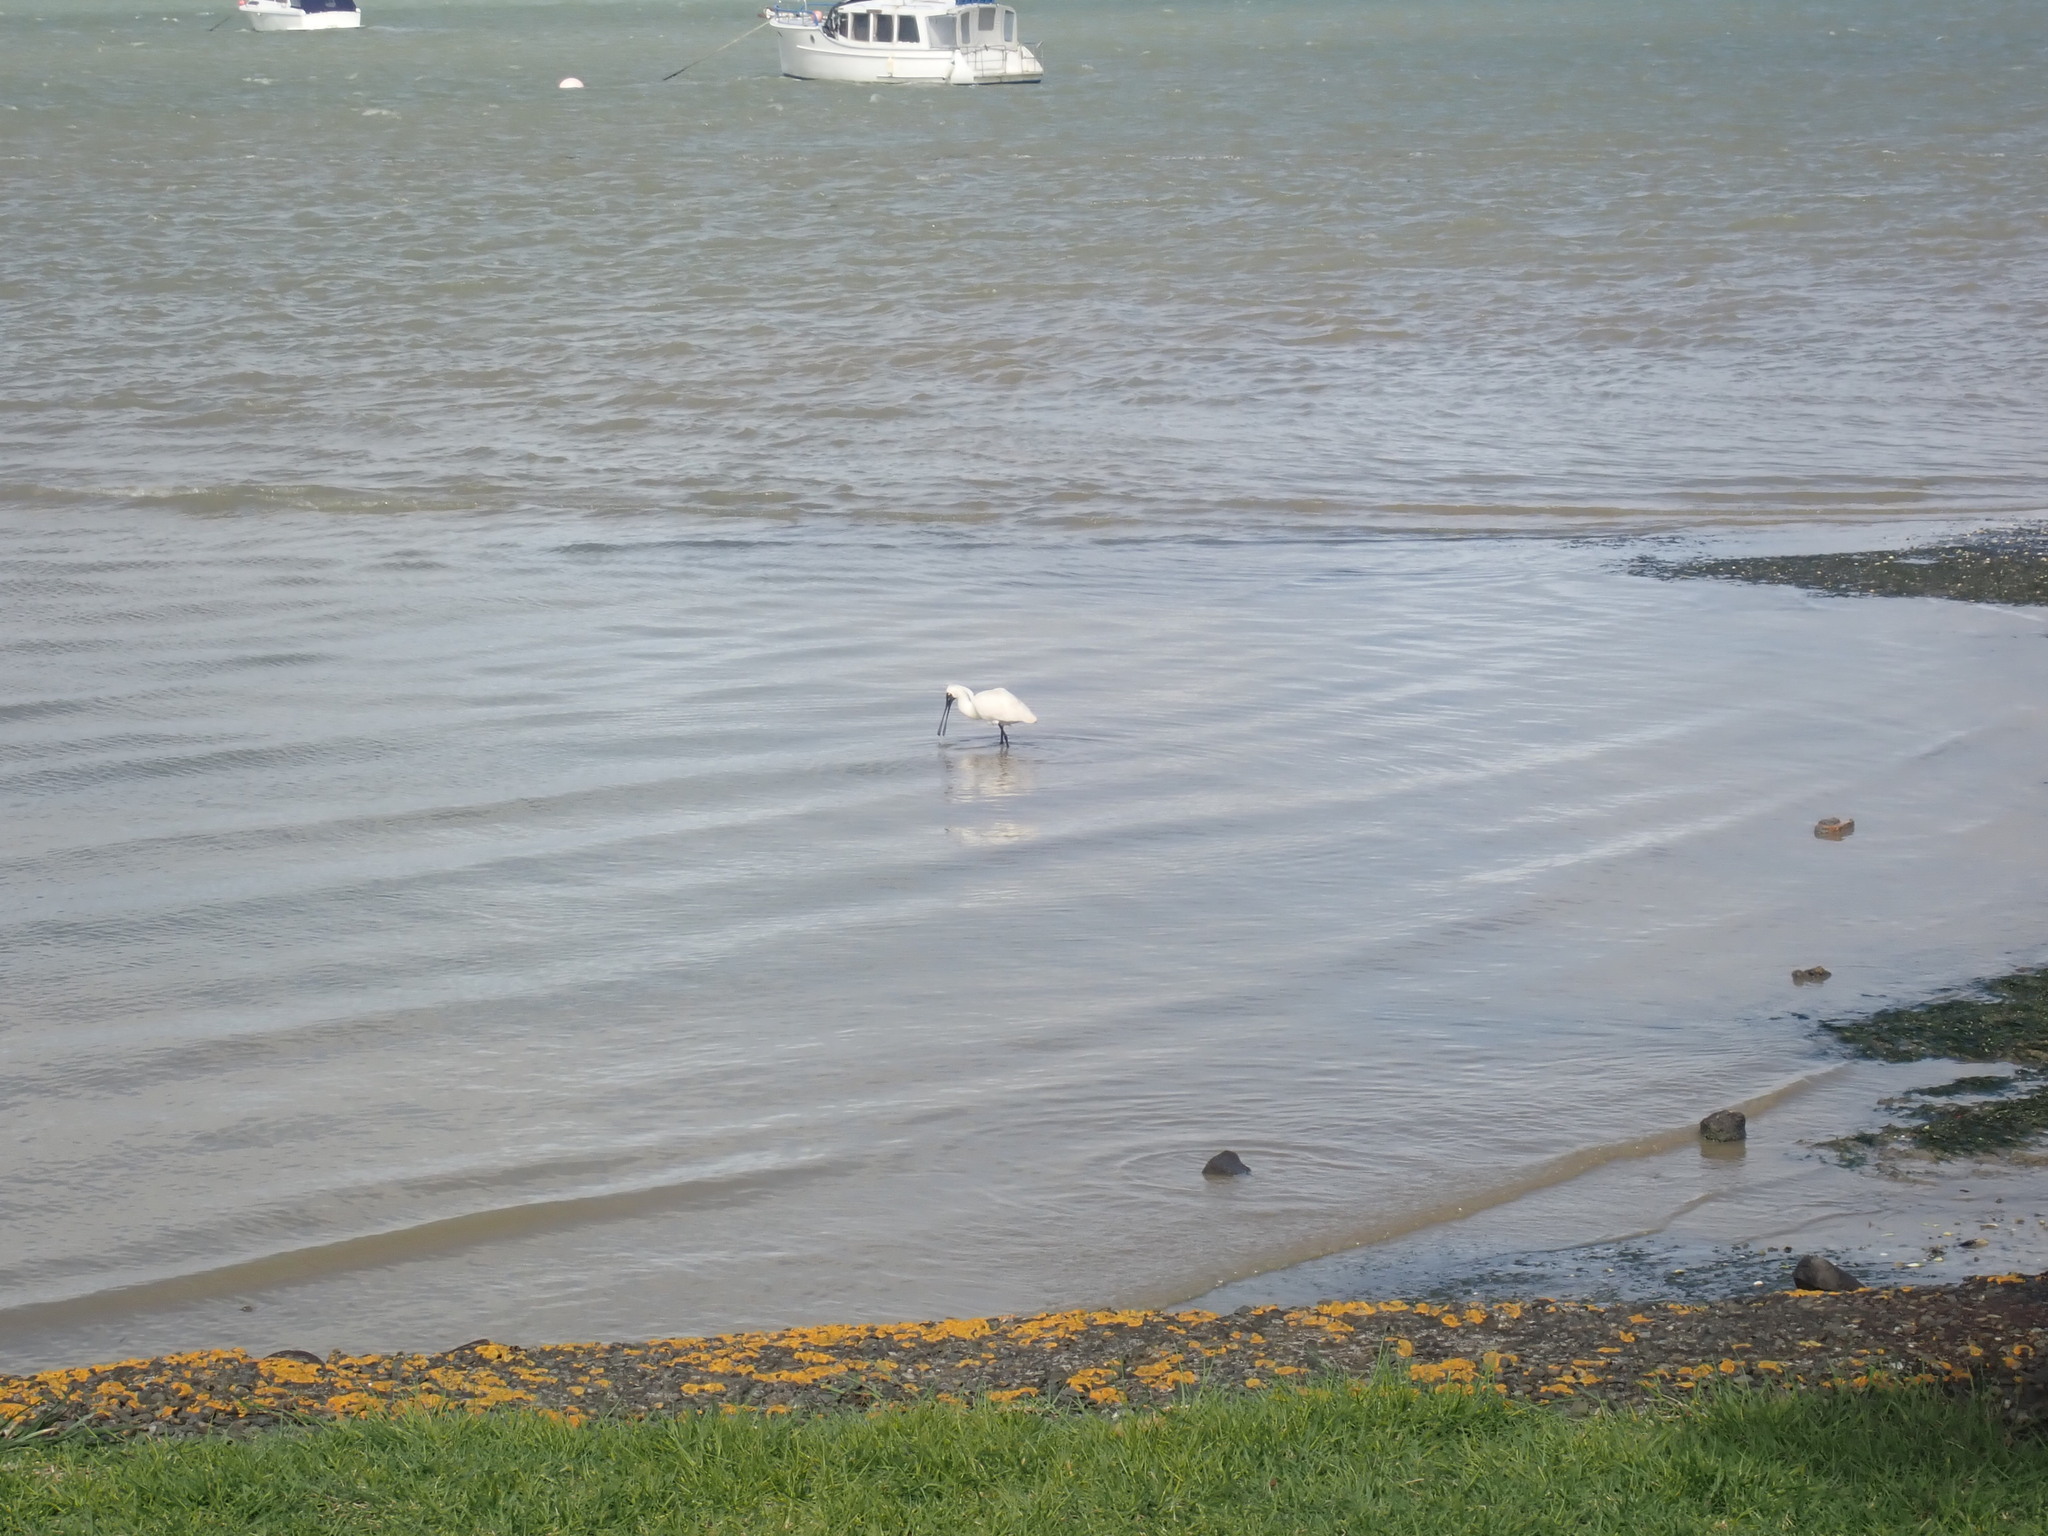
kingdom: Animalia
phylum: Chordata
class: Aves
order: Pelecaniformes
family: Threskiornithidae
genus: Platalea
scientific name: Platalea regia
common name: Royal spoonbill
